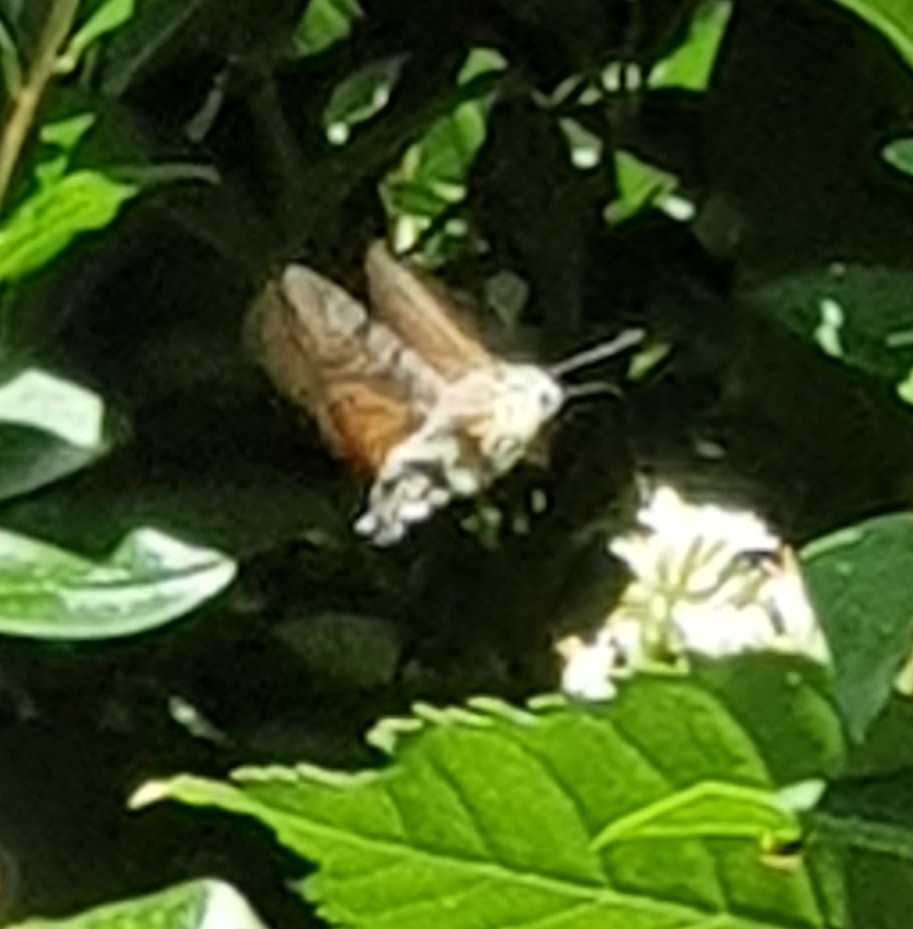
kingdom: Animalia
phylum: Arthropoda
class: Insecta
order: Lepidoptera
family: Sphingidae
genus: Macroglossum
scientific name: Macroglossum stellatarum
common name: Humming-bird hawk-moth
